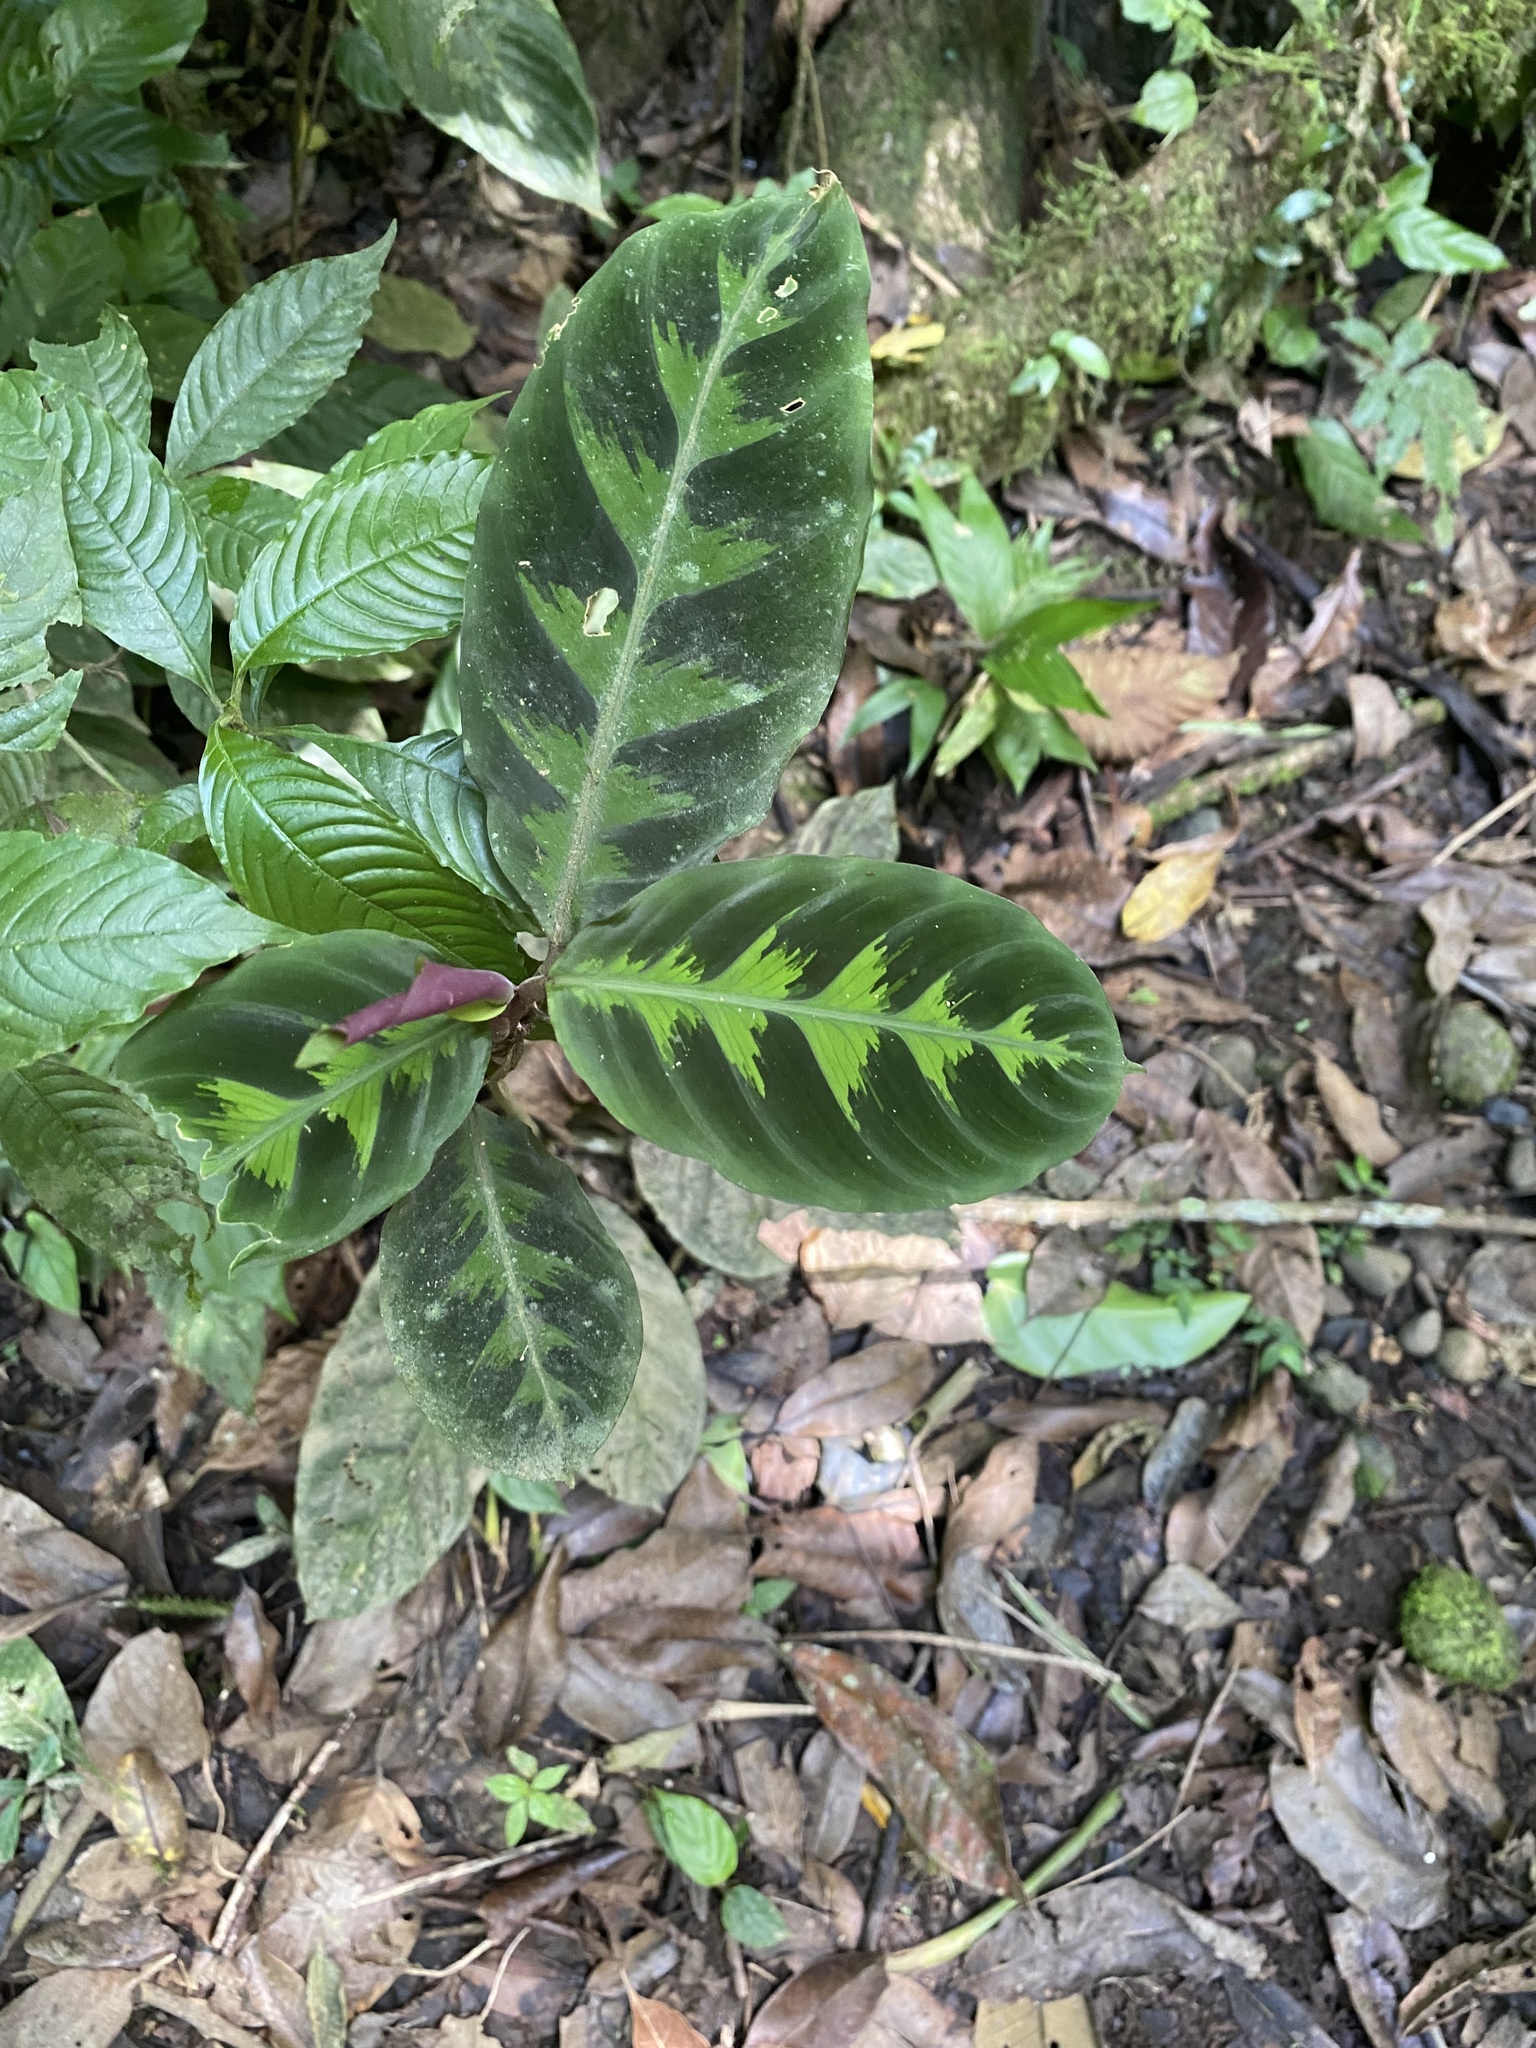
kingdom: Plantae
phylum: Tracheophyta
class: Liliopsida
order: Zingiberales
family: Marantaceae
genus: Goeppertia
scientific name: Goeppertia warszewiczii
